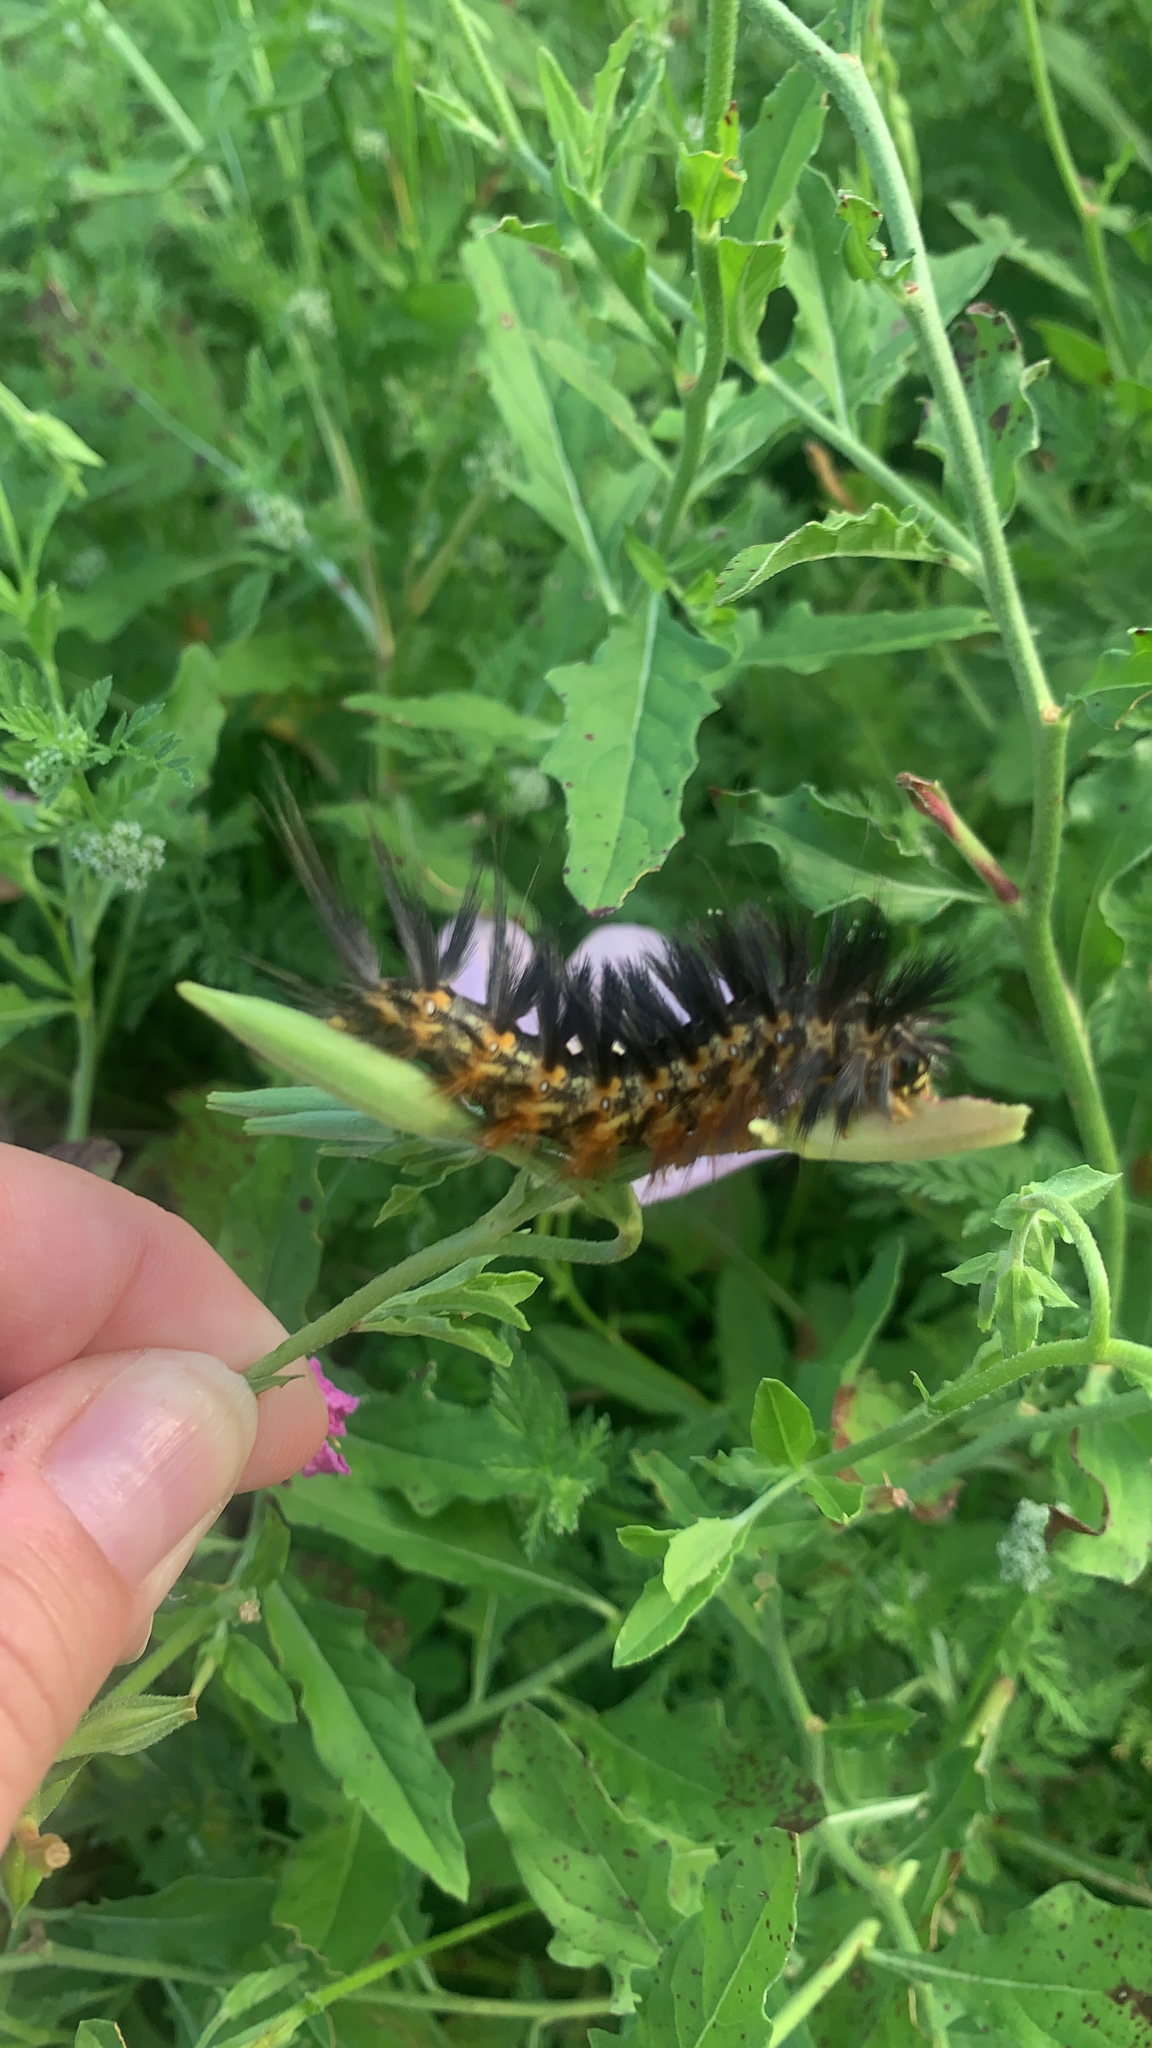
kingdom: Animalia
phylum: Arthropoda
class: Insecta
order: Lepidoptera
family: Erebidae
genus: Estigmene
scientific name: Estigmene acrea
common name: Salt marsh moth
